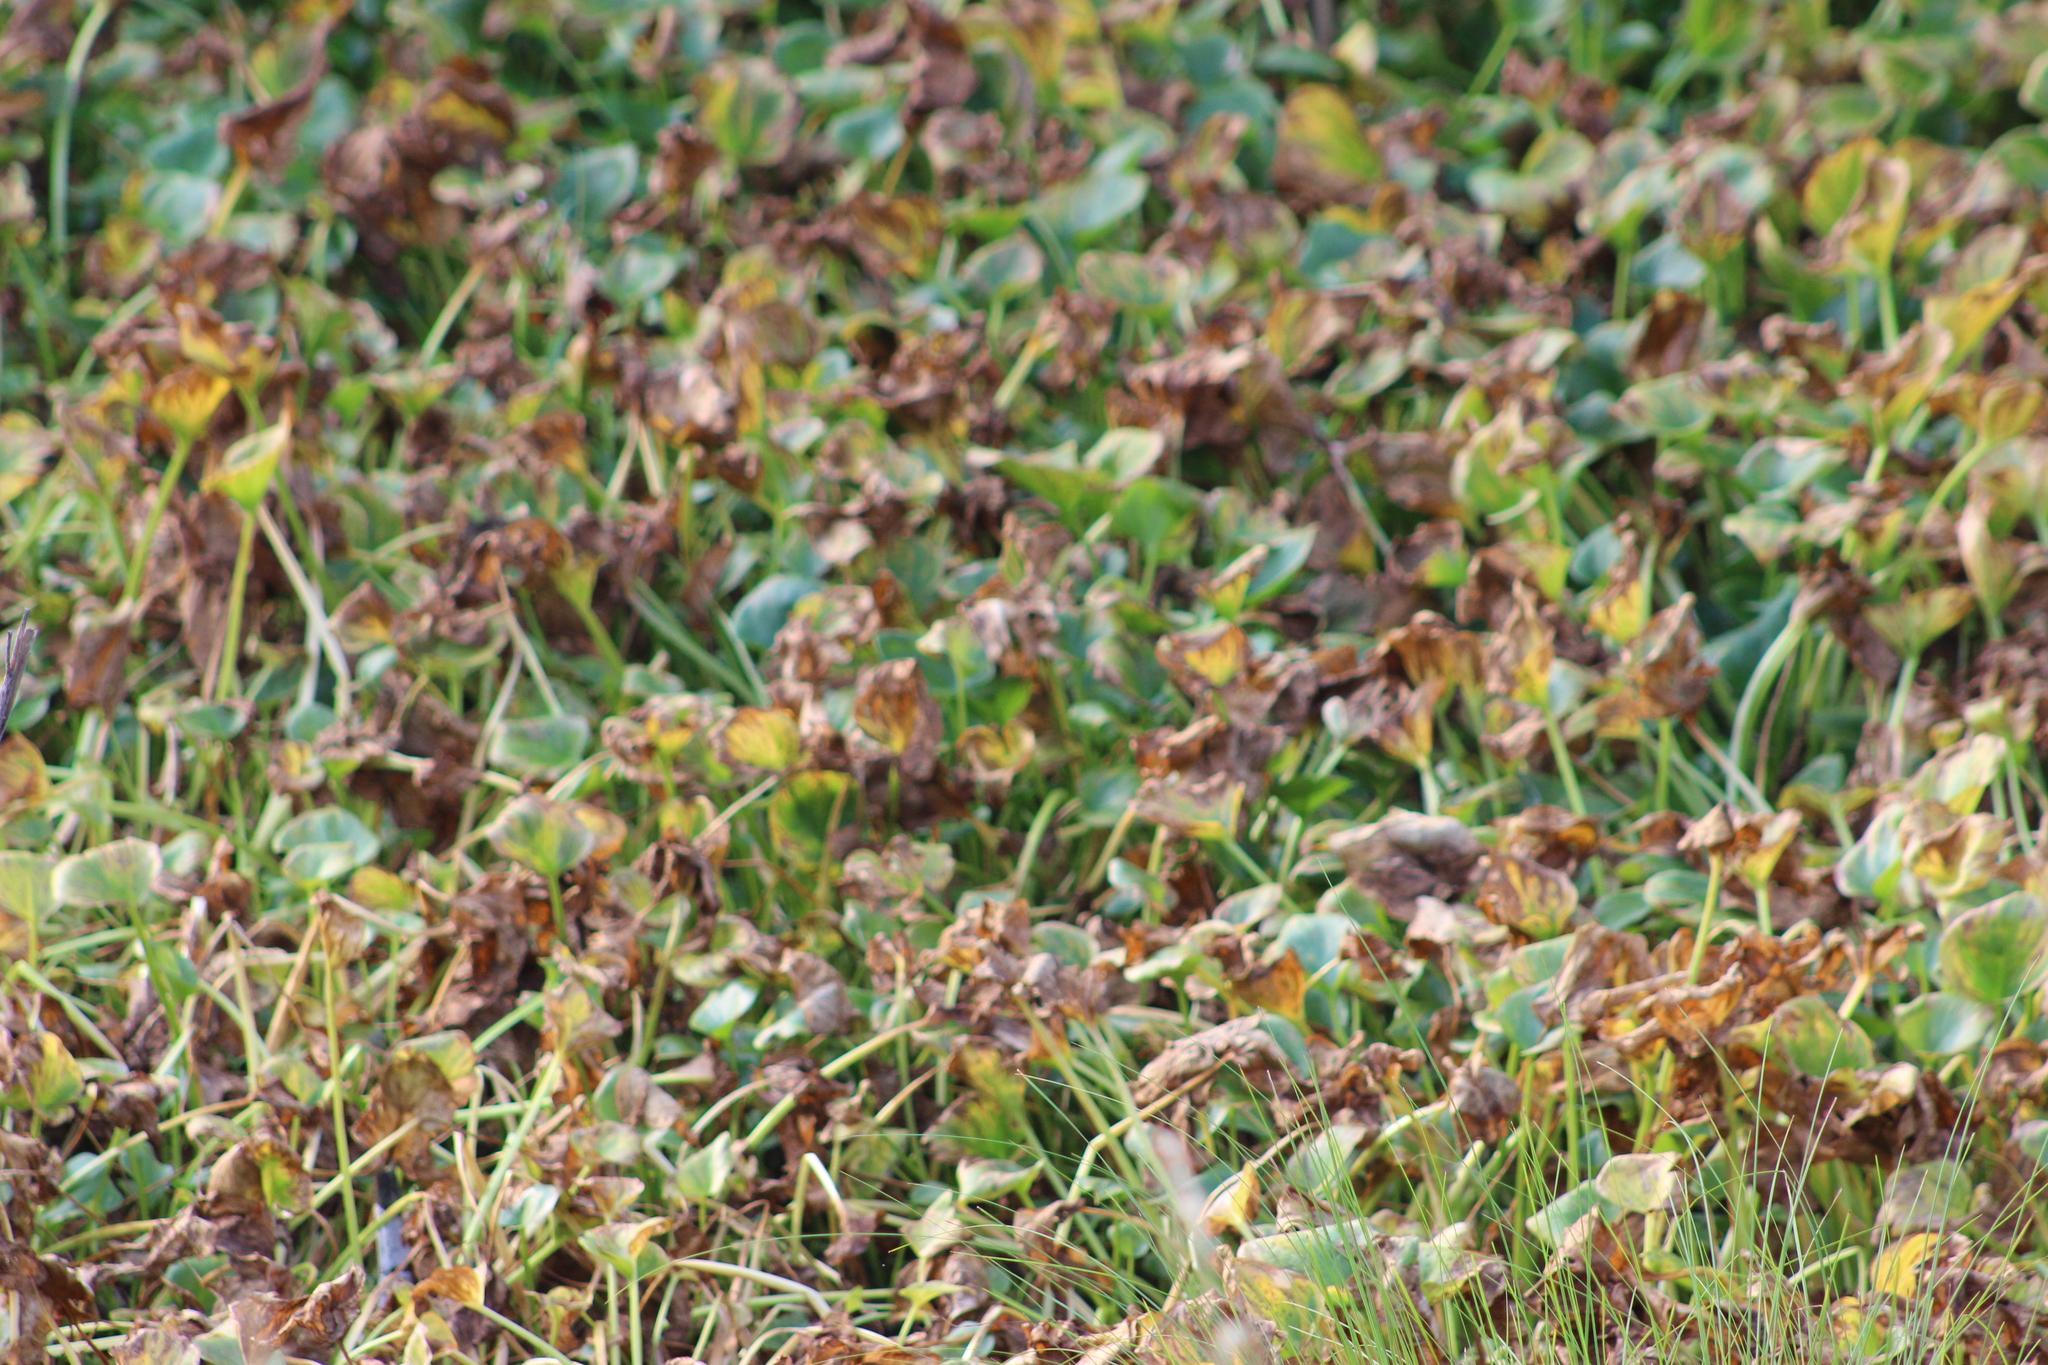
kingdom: Plantae
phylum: Tracheophyta
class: Liliopsida
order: Alismatales
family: Araceae
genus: Calla
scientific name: Calla palustris
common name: Bog arum
